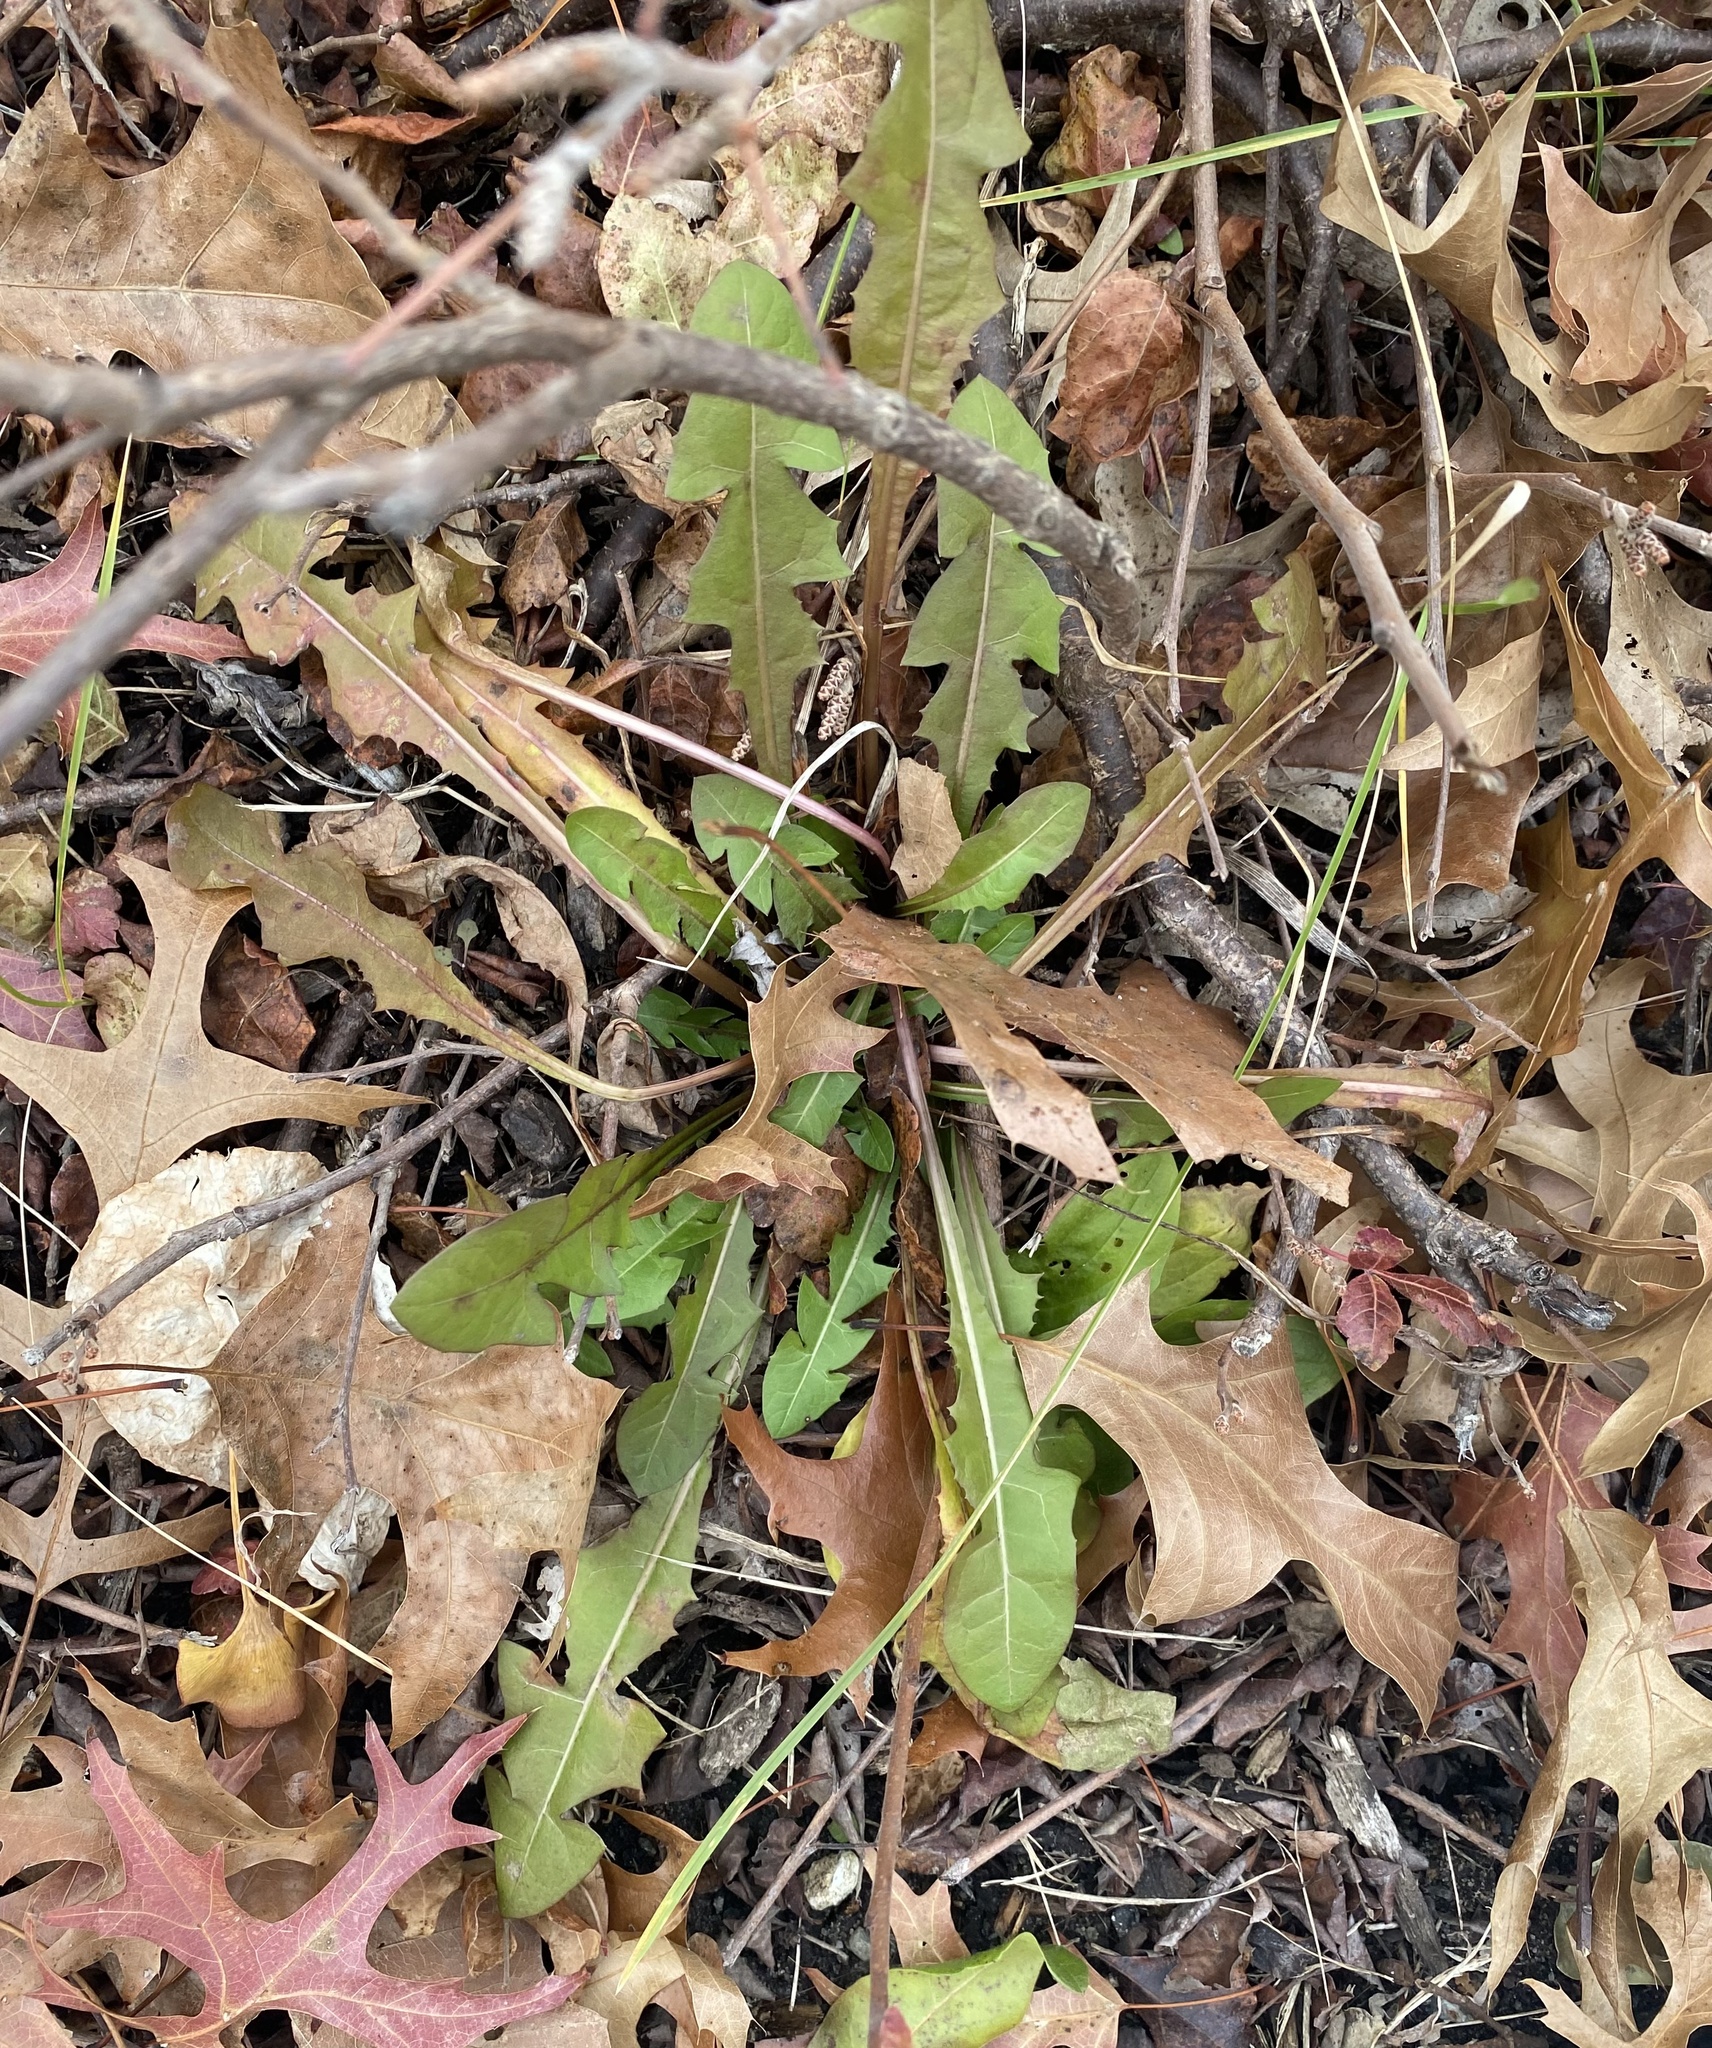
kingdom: Plantae
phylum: Tracheophyta
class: Magnoliopsida
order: Asterales
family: Asteraceae
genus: Taraxacum
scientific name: Taraxacum
